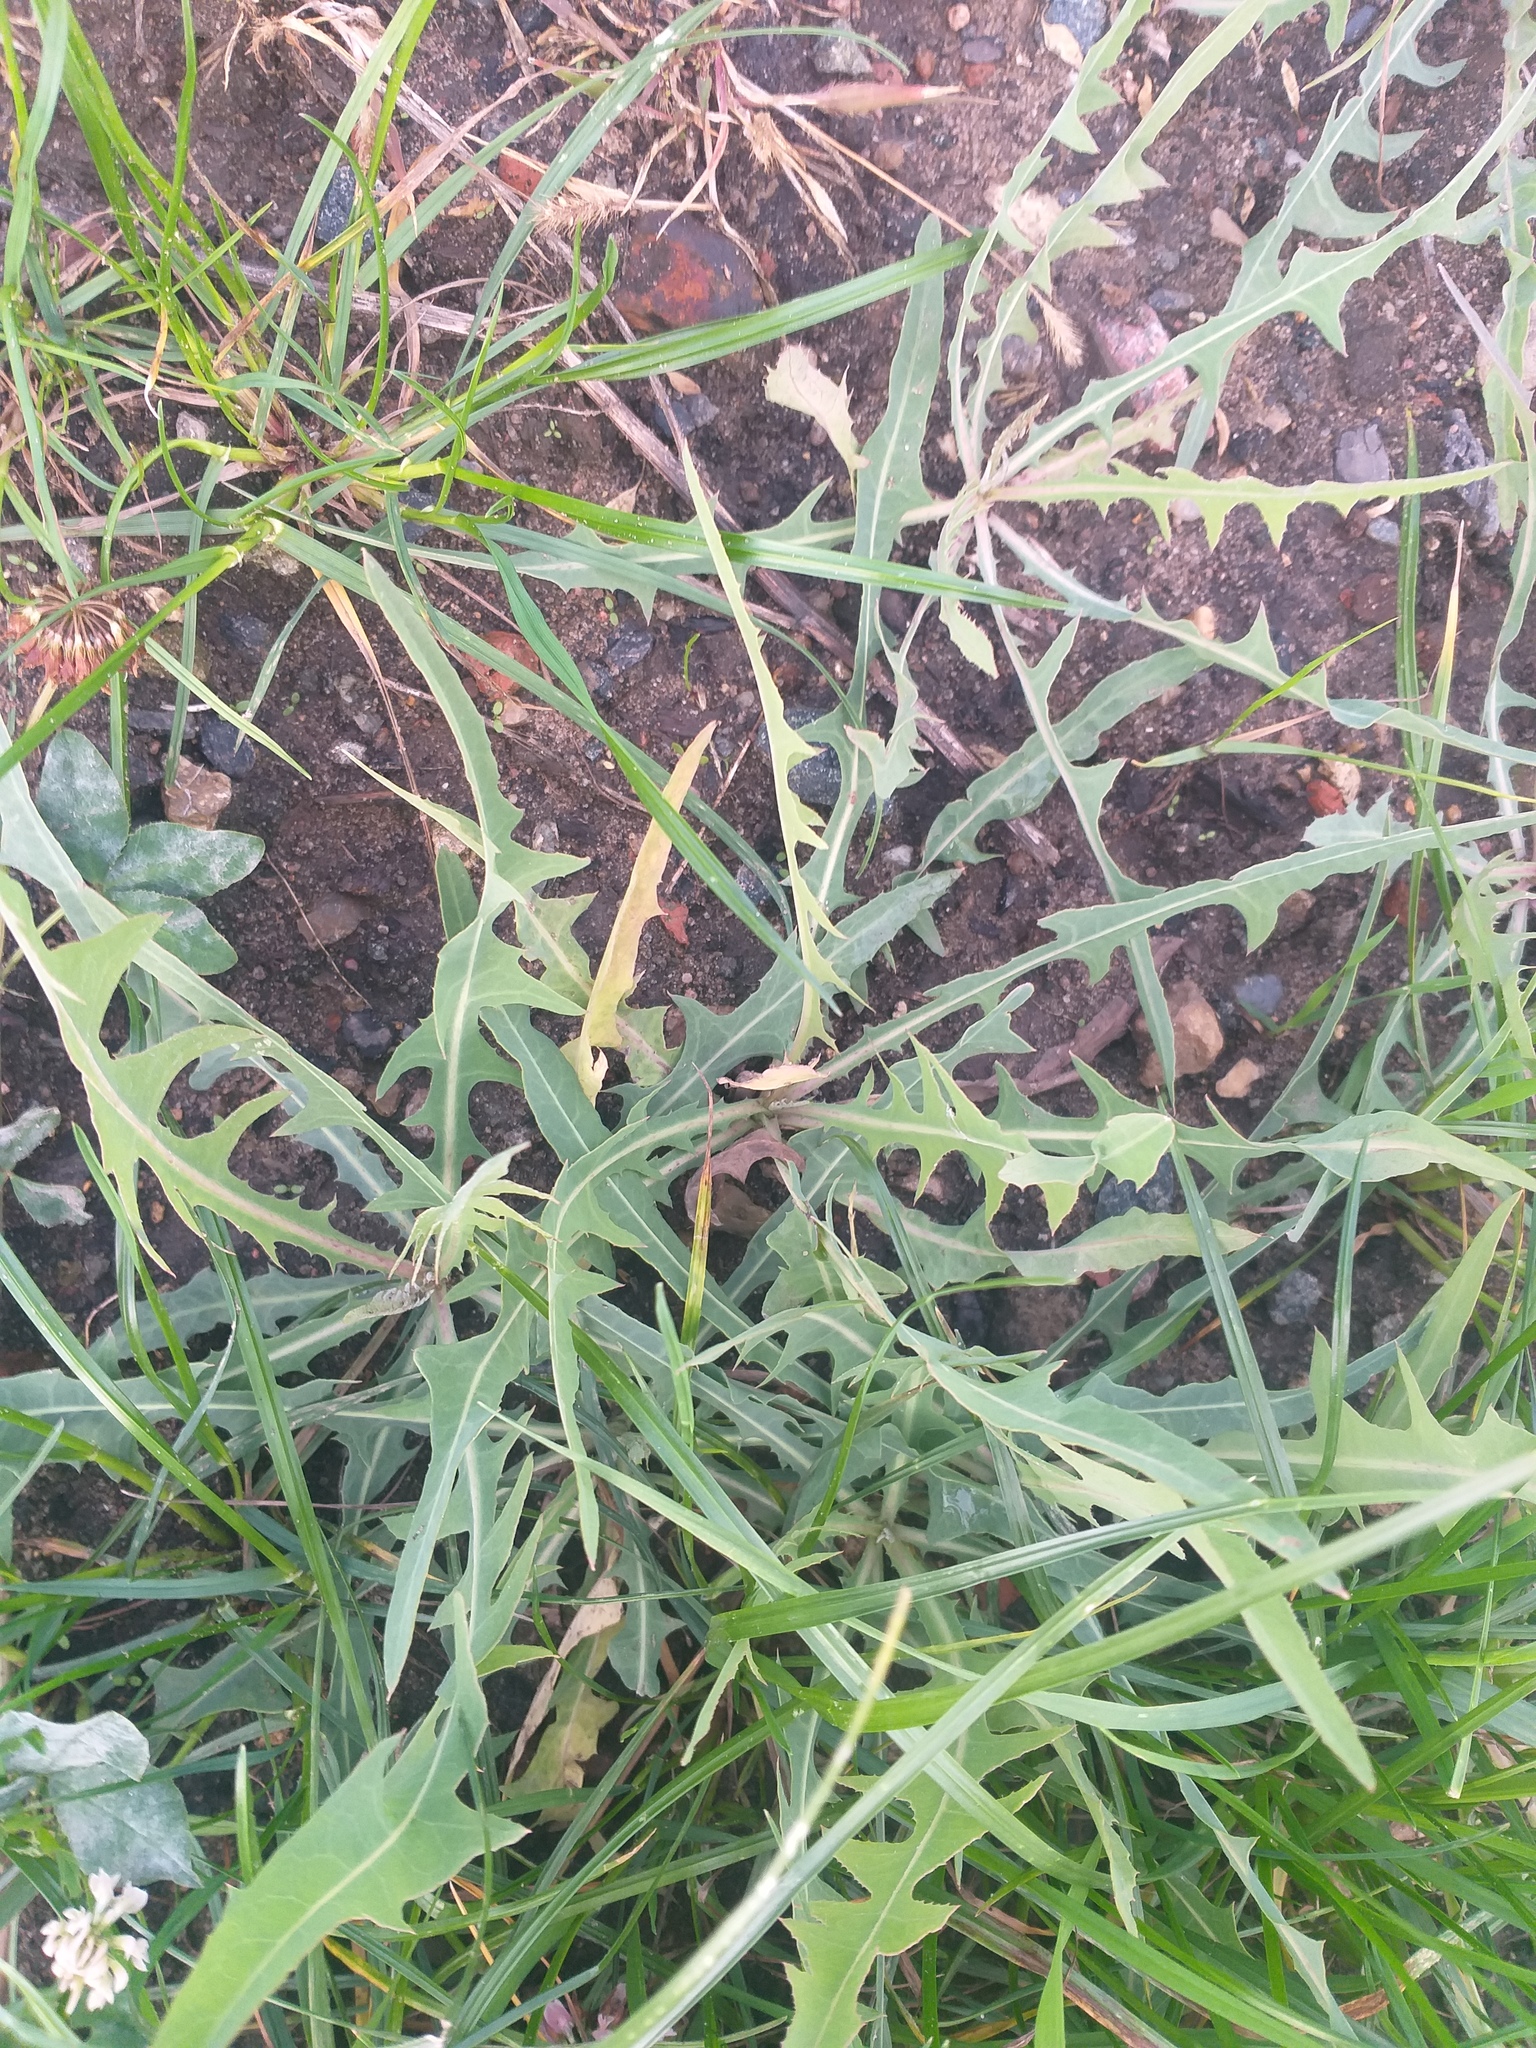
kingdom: Plantae
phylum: Tracheophyta
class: Magnoliopsida
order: Asterales
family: Asteraceae
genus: Lactuca
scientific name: Lactuca tatarica
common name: Blue lettuce
